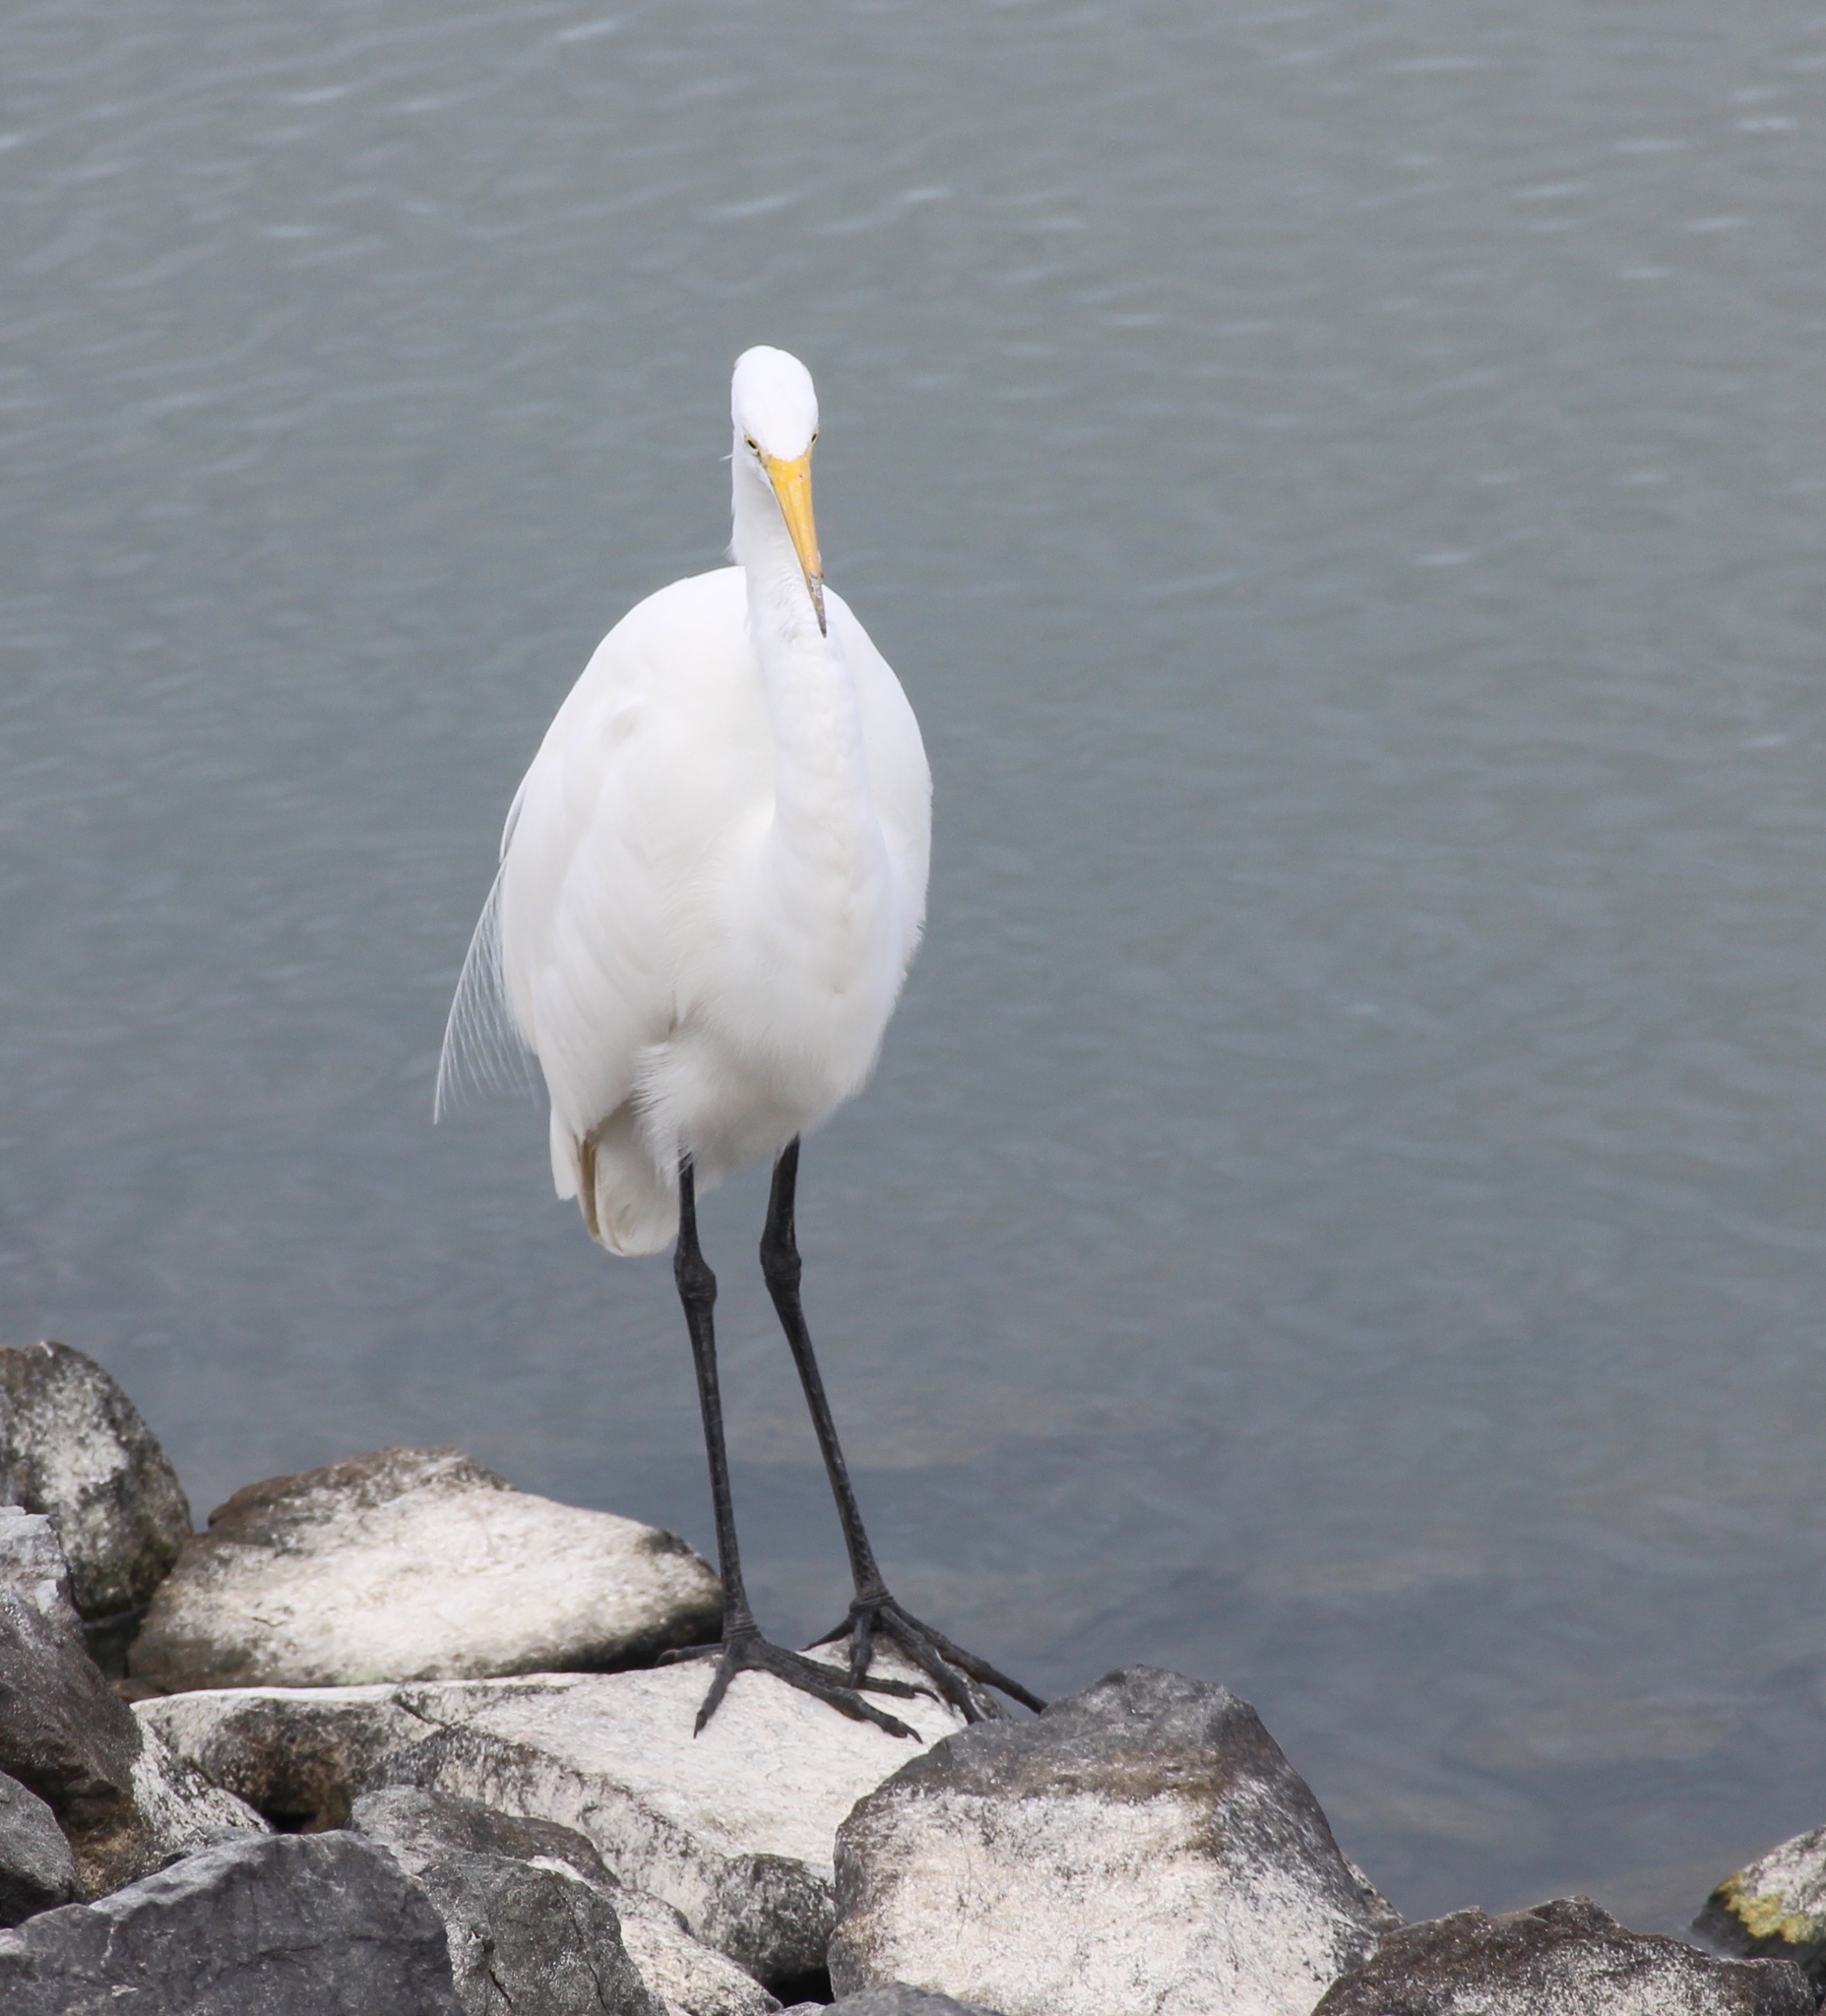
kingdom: Animalia
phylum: Chordata
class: Aves
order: Pelecaniformes
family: Ardeidae
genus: Ardea
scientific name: Ardea alba
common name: Great egret
